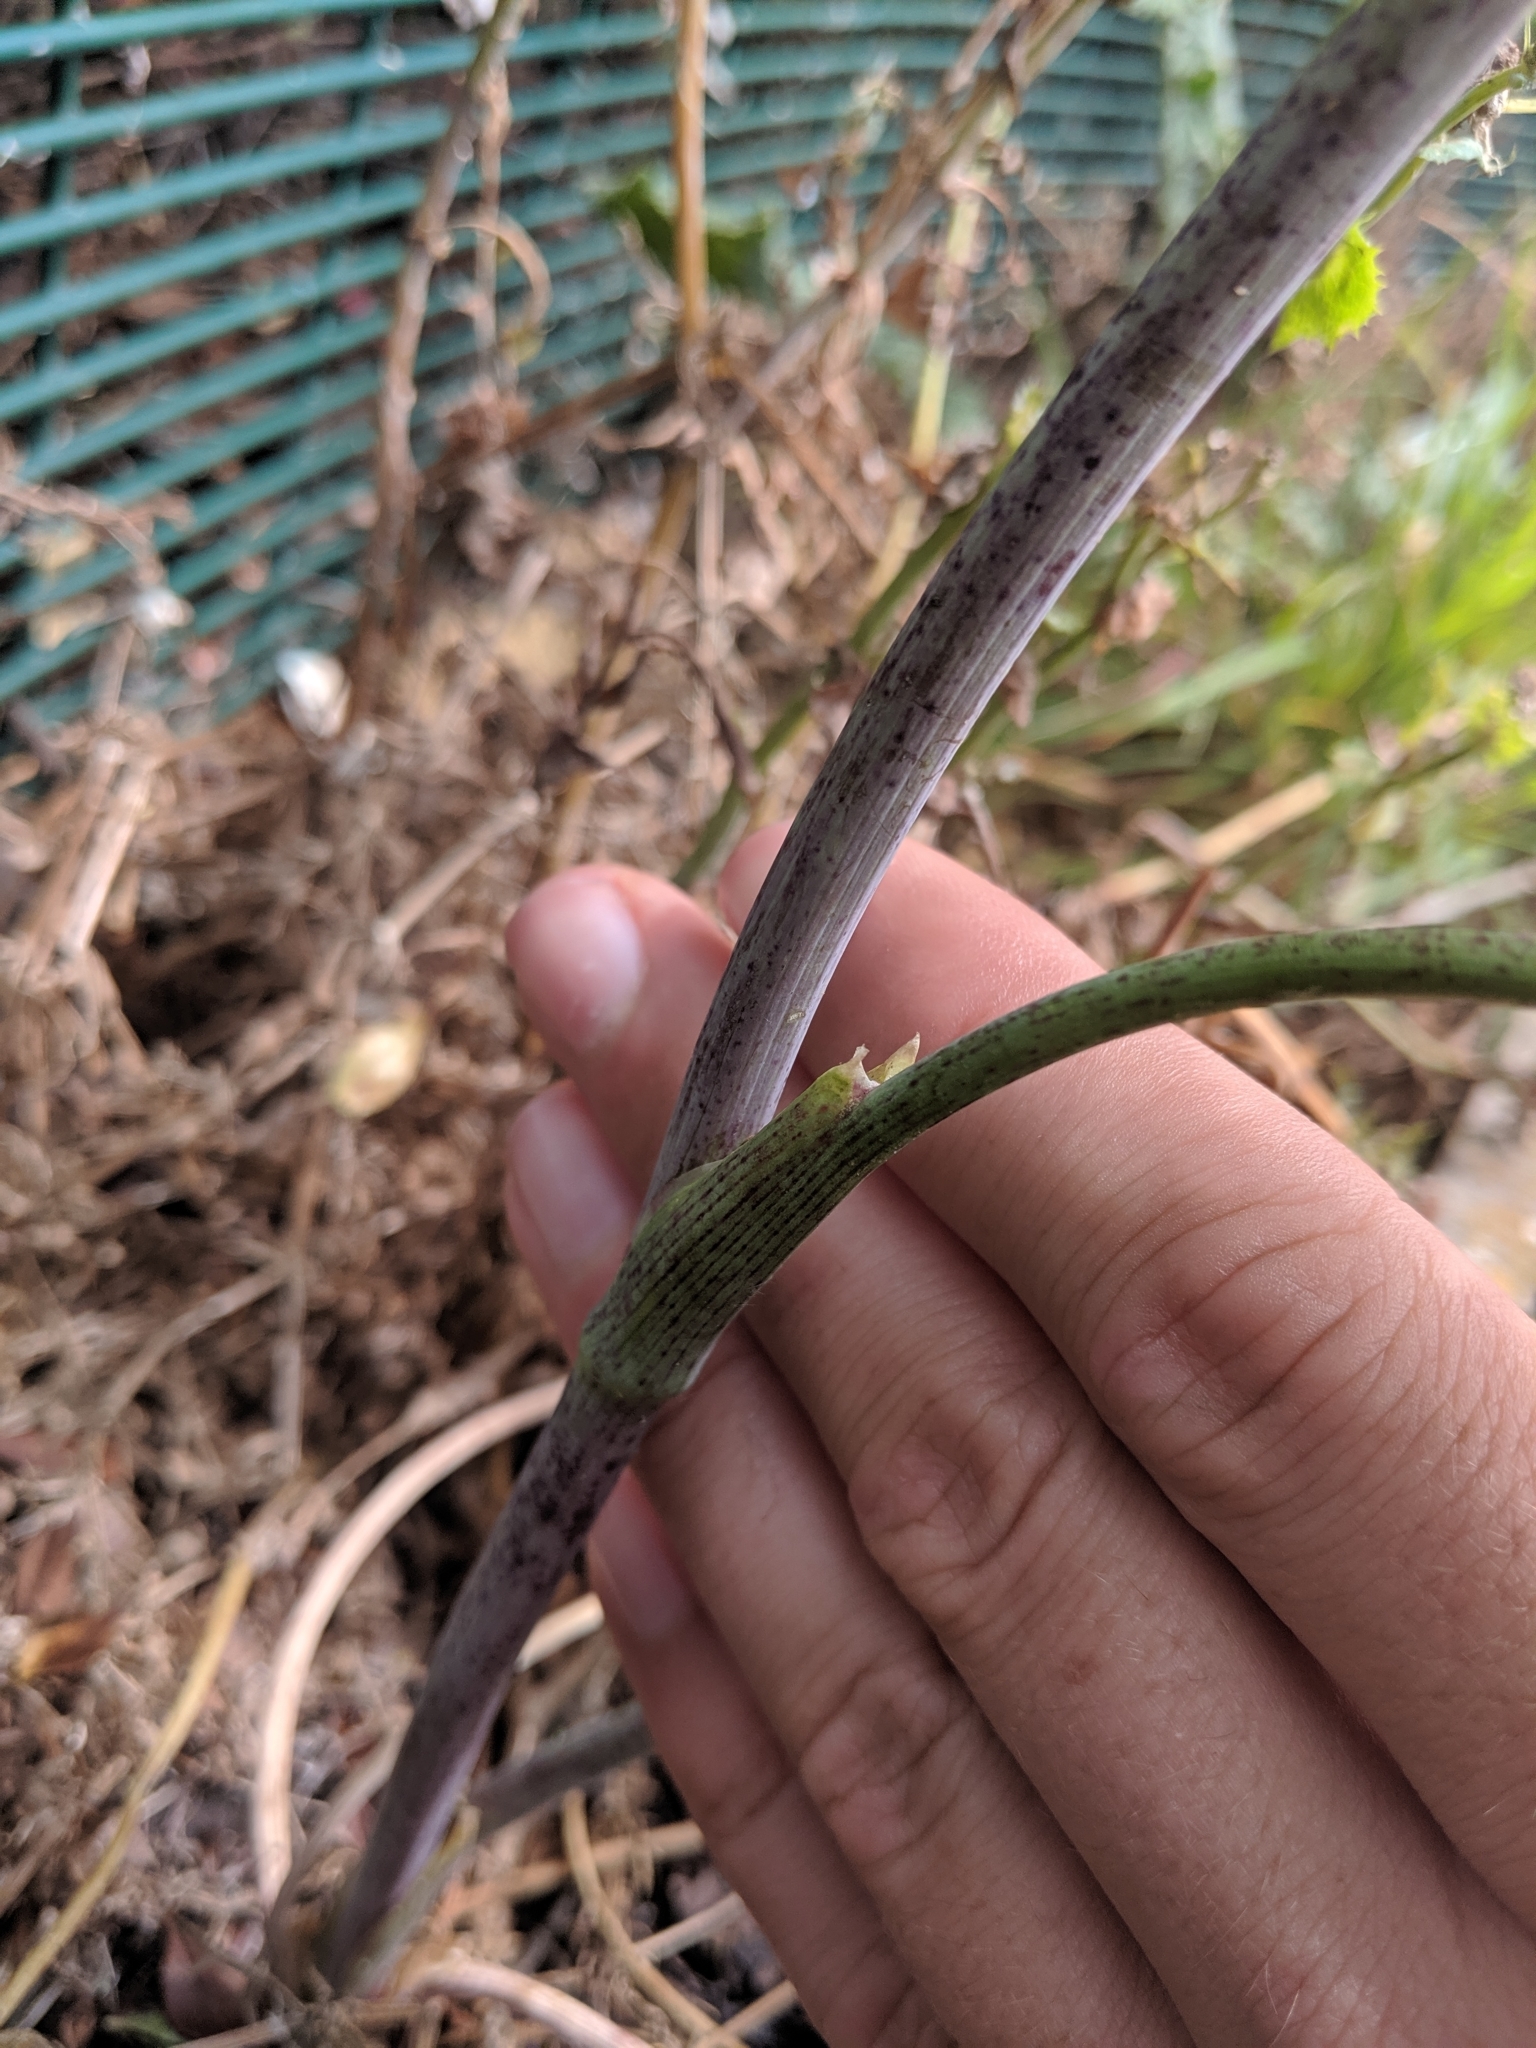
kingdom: Plantae
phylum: Tracheophyta
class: Magnoliopsida
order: Apiales
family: Apiaceae
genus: Conium
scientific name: Conium maculatum
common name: Hemlock
